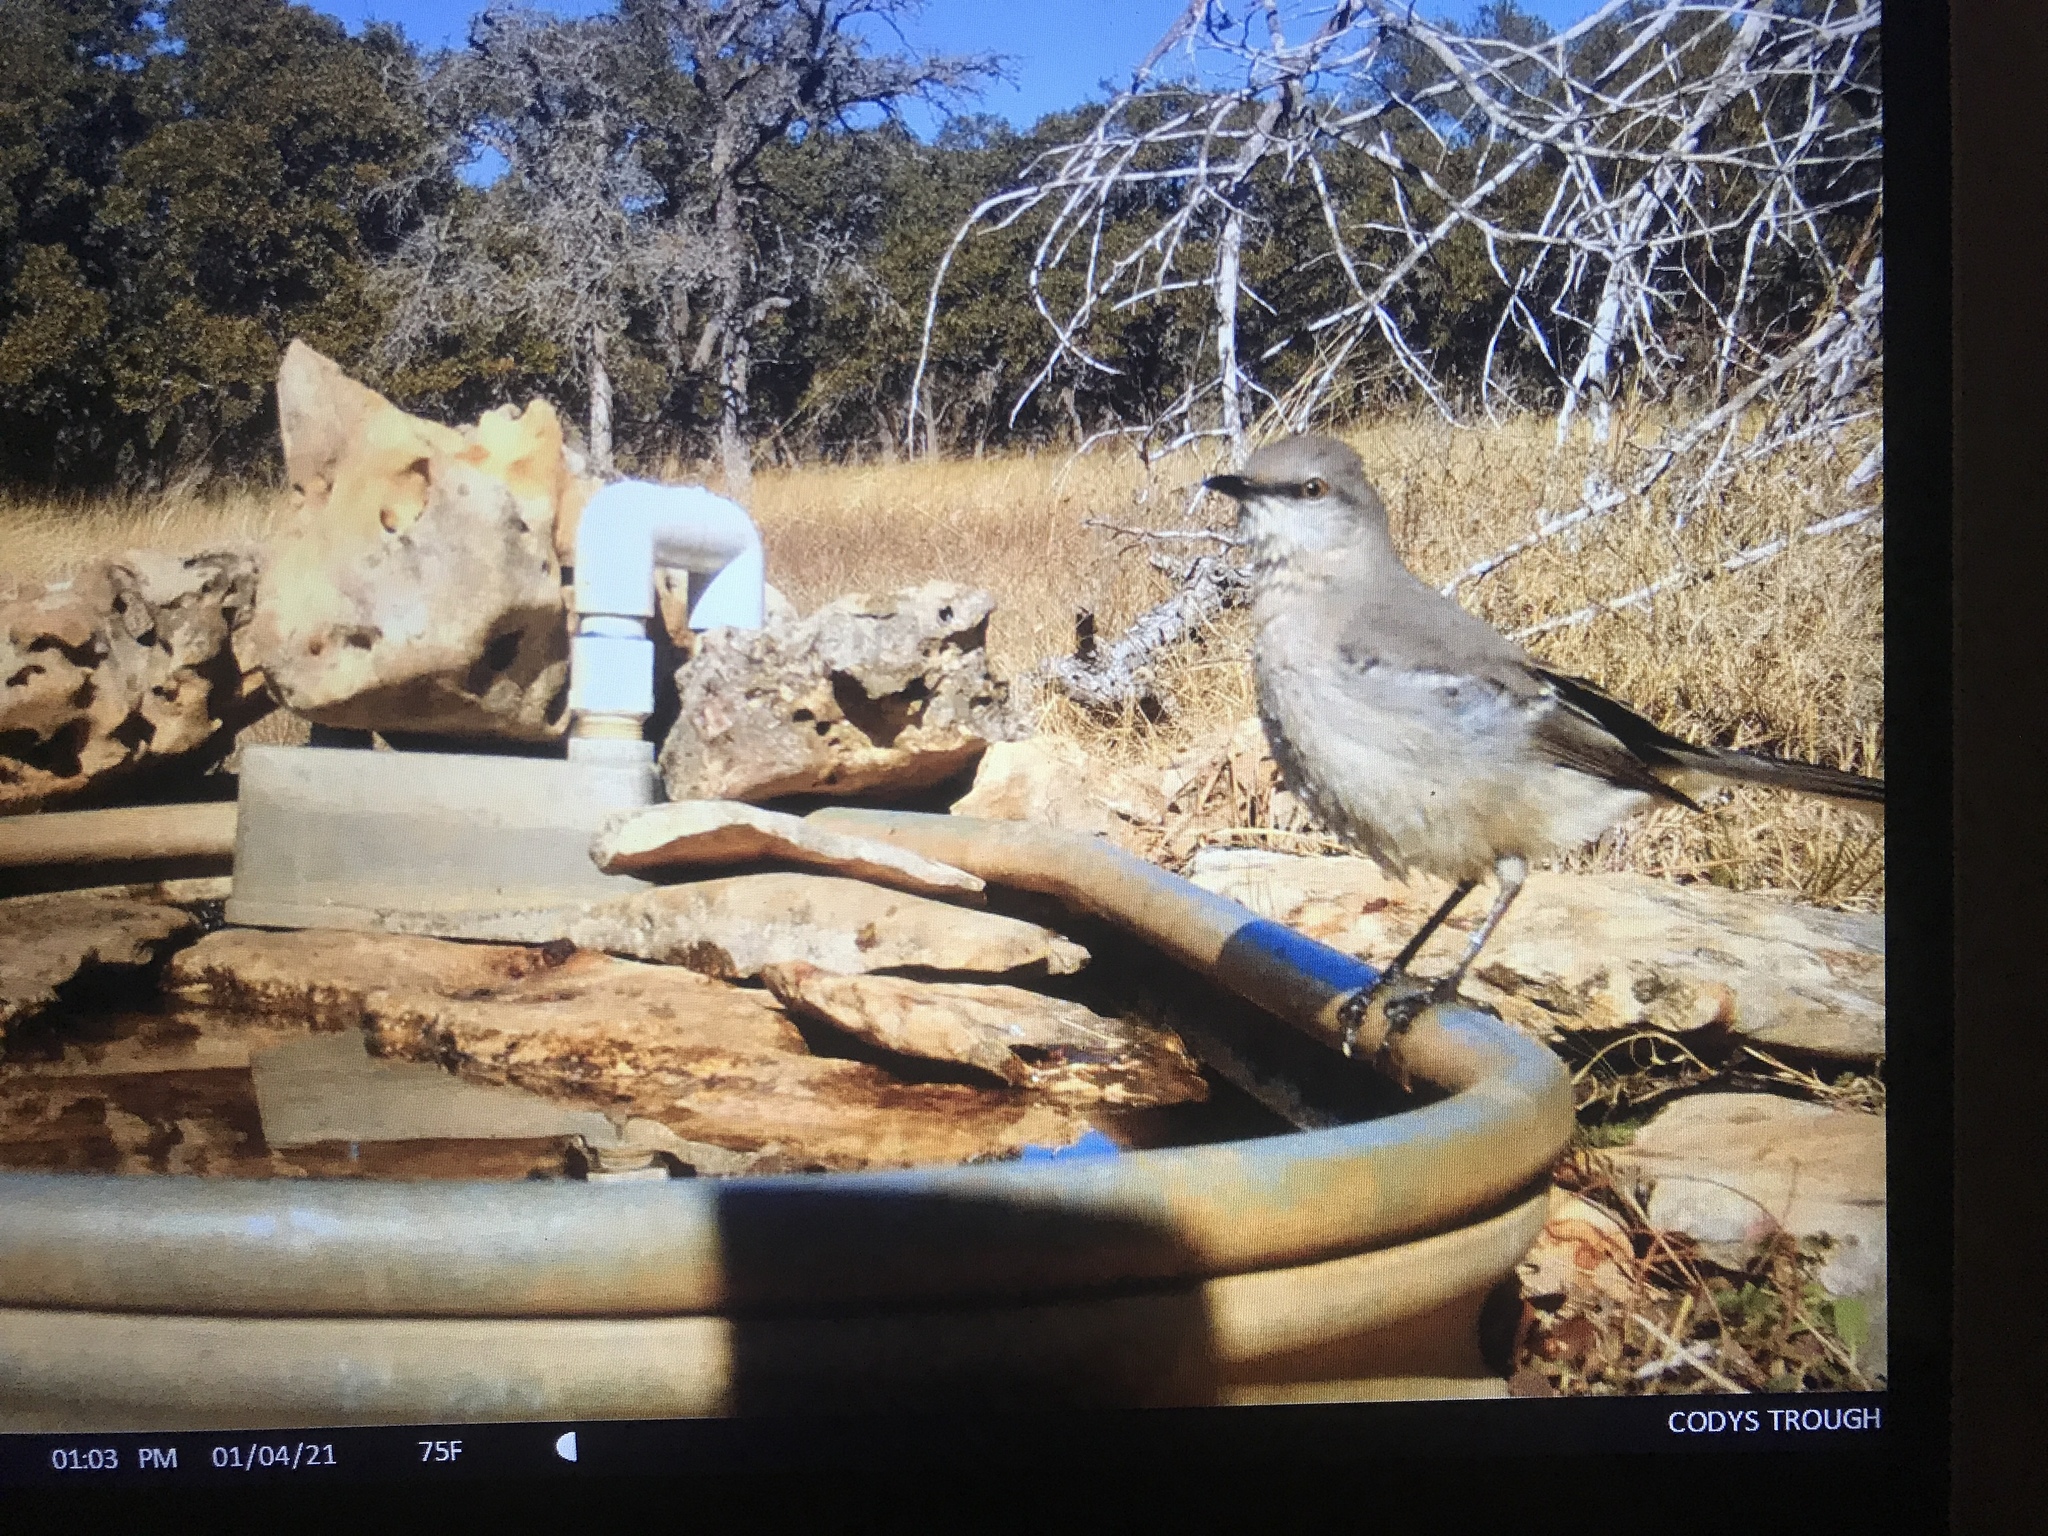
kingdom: Animalia
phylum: Chordata
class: Aves
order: Passeriformes
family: Mimidae
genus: Mimus
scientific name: Mimus polyglottos
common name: Northern mockingbird
